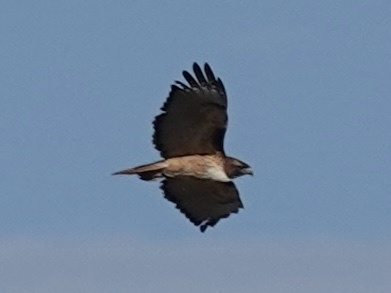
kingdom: Animalia
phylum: Chordata
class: Aves
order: Accipitriformes
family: Accipitridae
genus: Buteo
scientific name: Buteo jamaicensis
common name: Red-tailed hawk
